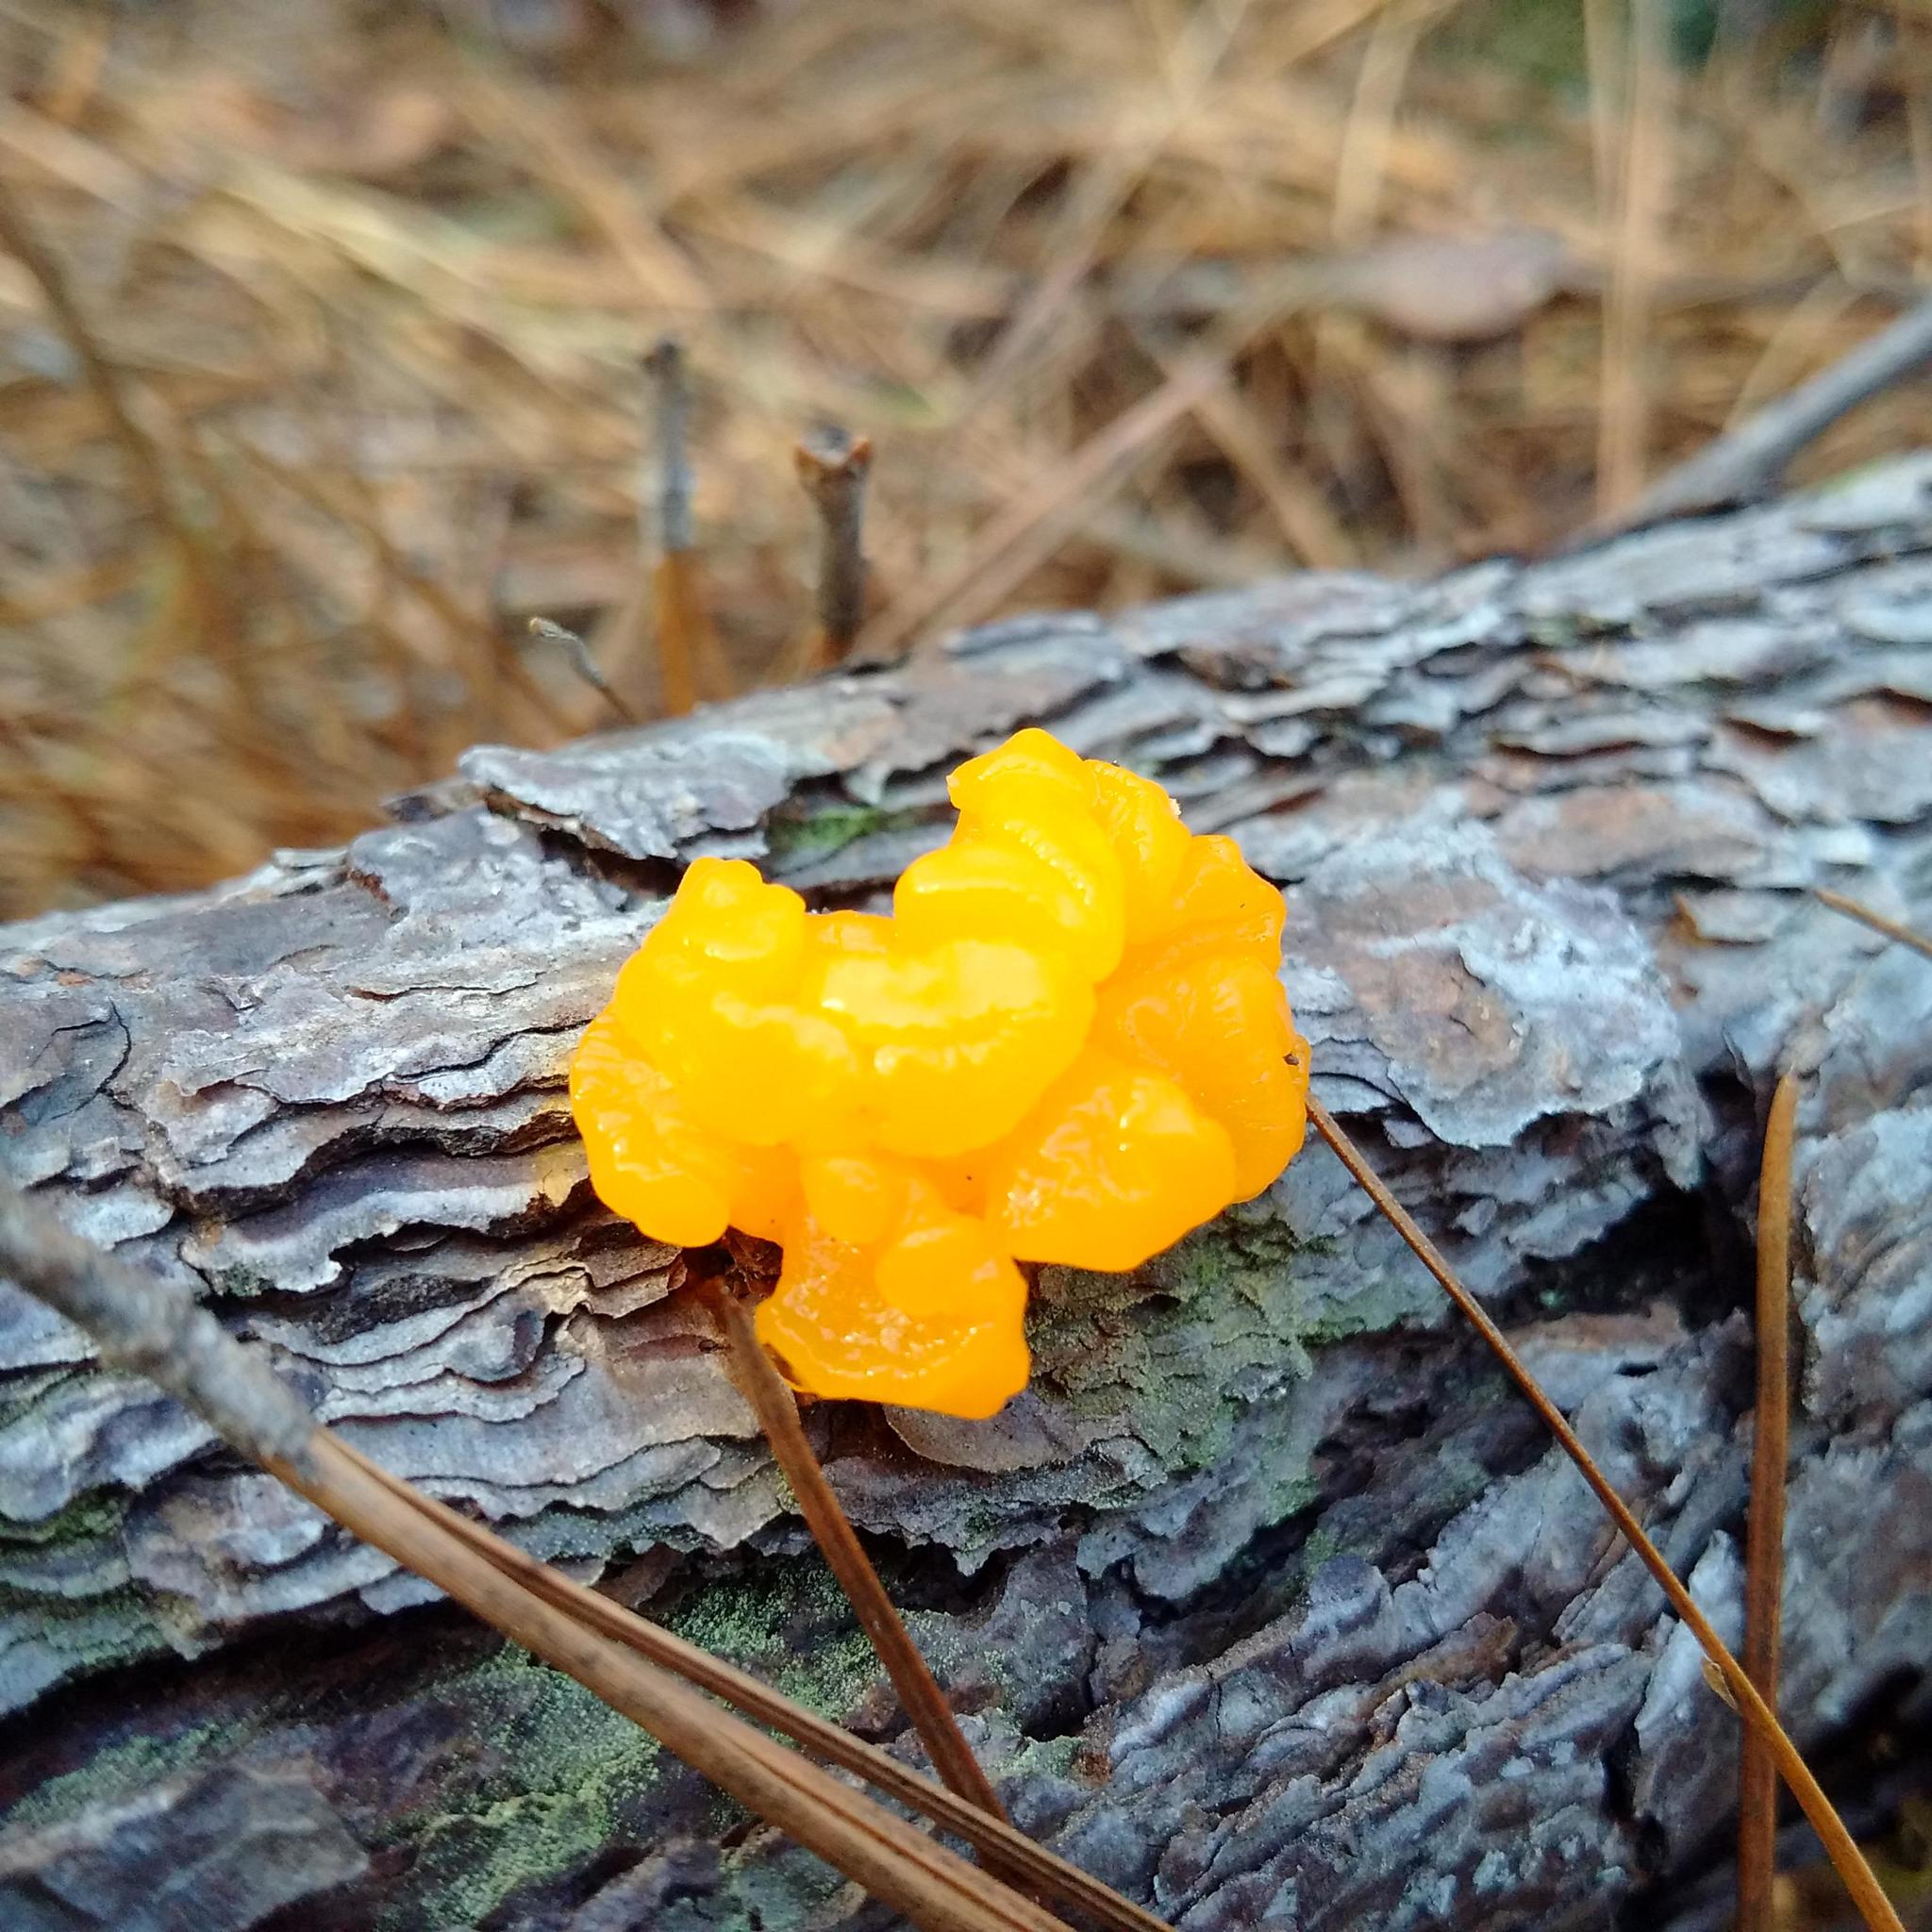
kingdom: Fungi
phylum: Basidiomycota
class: Dacrymycetes
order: Dacrymycetales
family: Dacrymycetaceae
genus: Dacrymyces
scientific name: Dacrymyces chrysospermus
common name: Orange jelly spot
